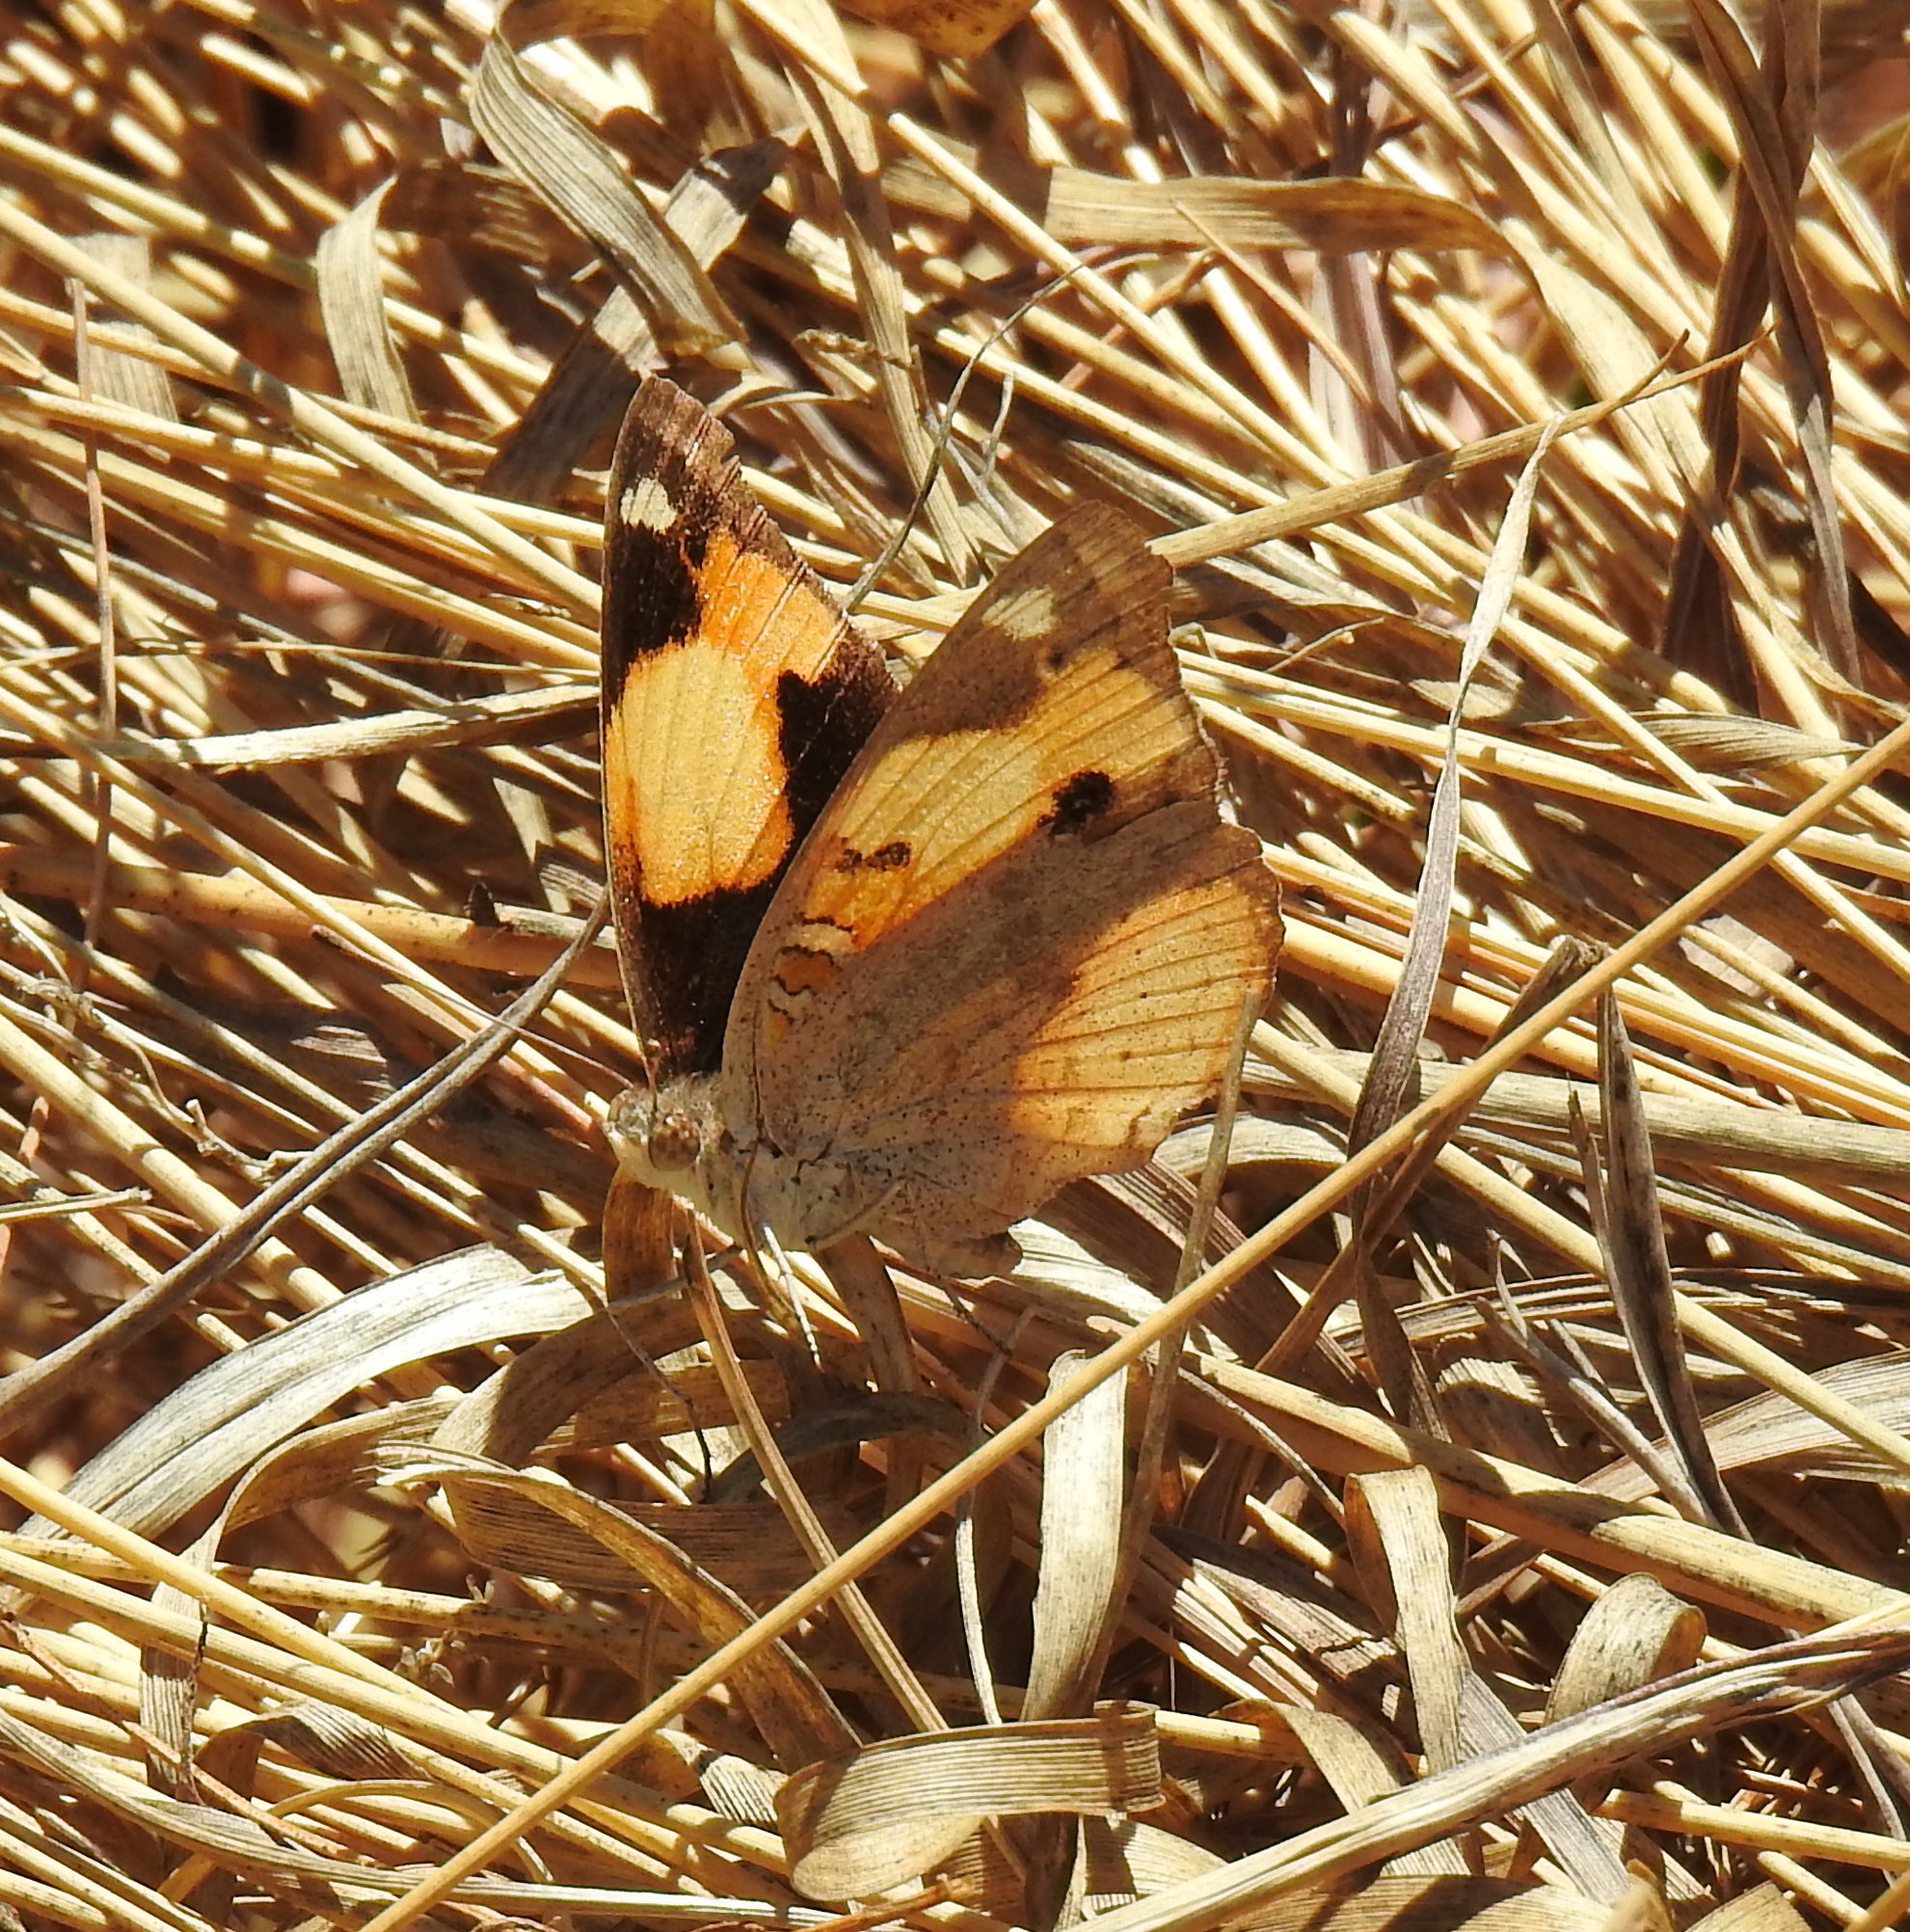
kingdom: Animalia
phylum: Arthropoda
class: Insecta
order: Lepidoptera
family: Nymphalidae
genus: Junonia
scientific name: Junonia hierta
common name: Yellow pansy
